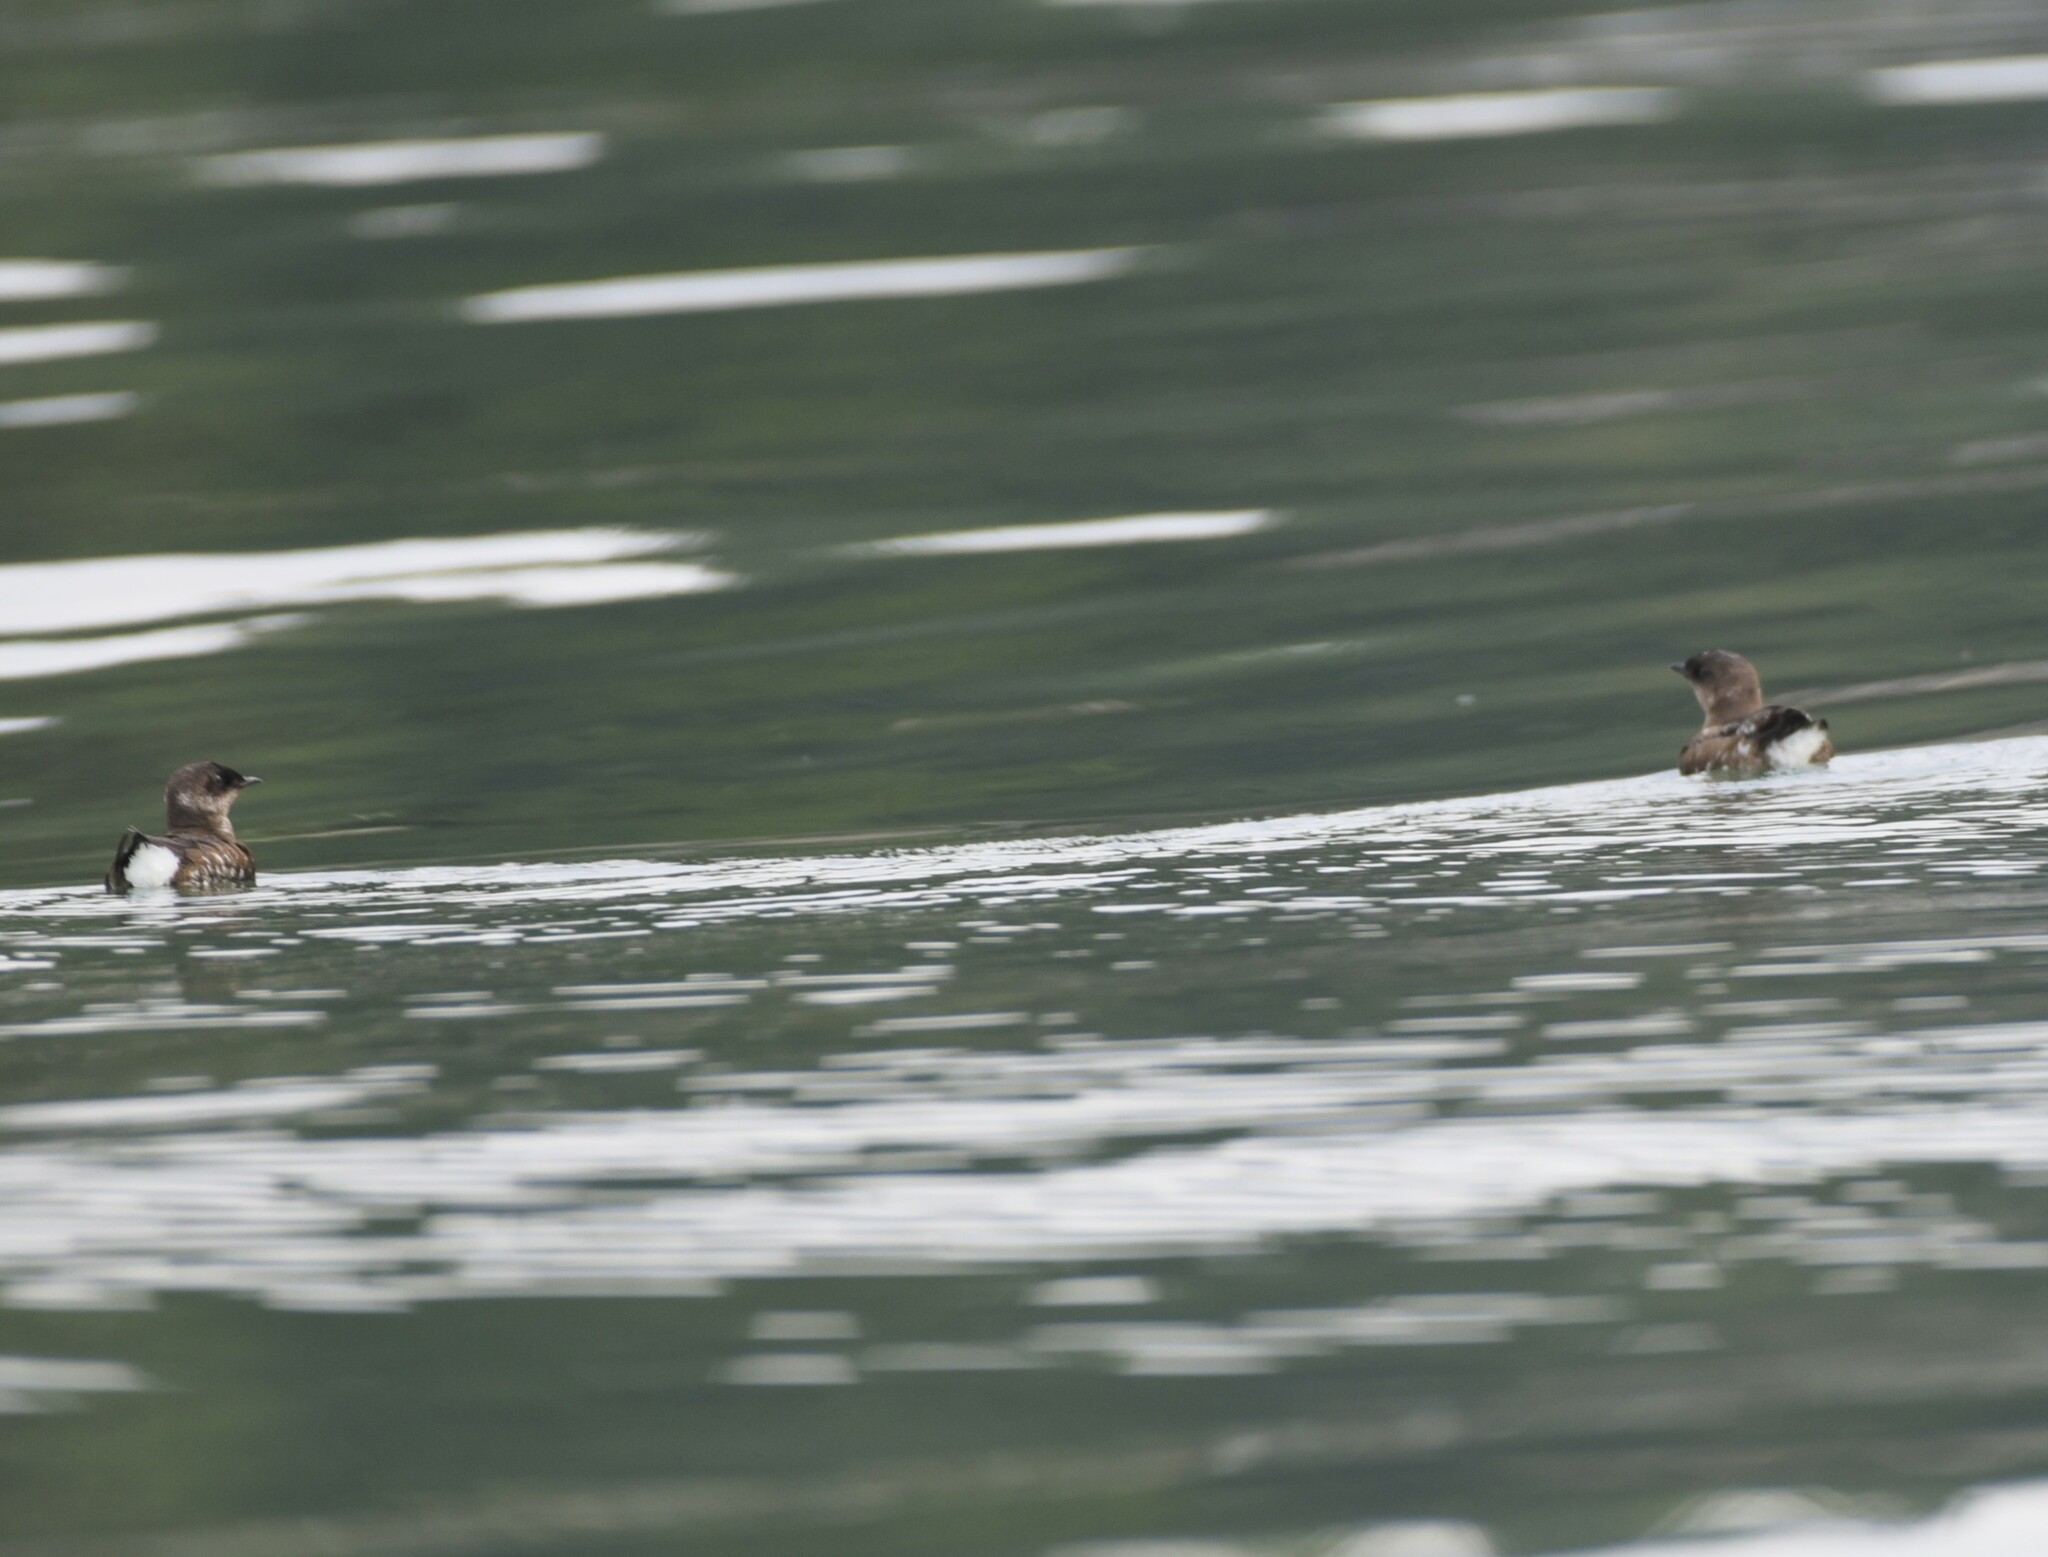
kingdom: Animalia
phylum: Chordata
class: Aves
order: Charadriiformes
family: Alcidae
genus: Brachyramphus
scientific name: Brachyramphus marmoratus
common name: Marbled murrelet
